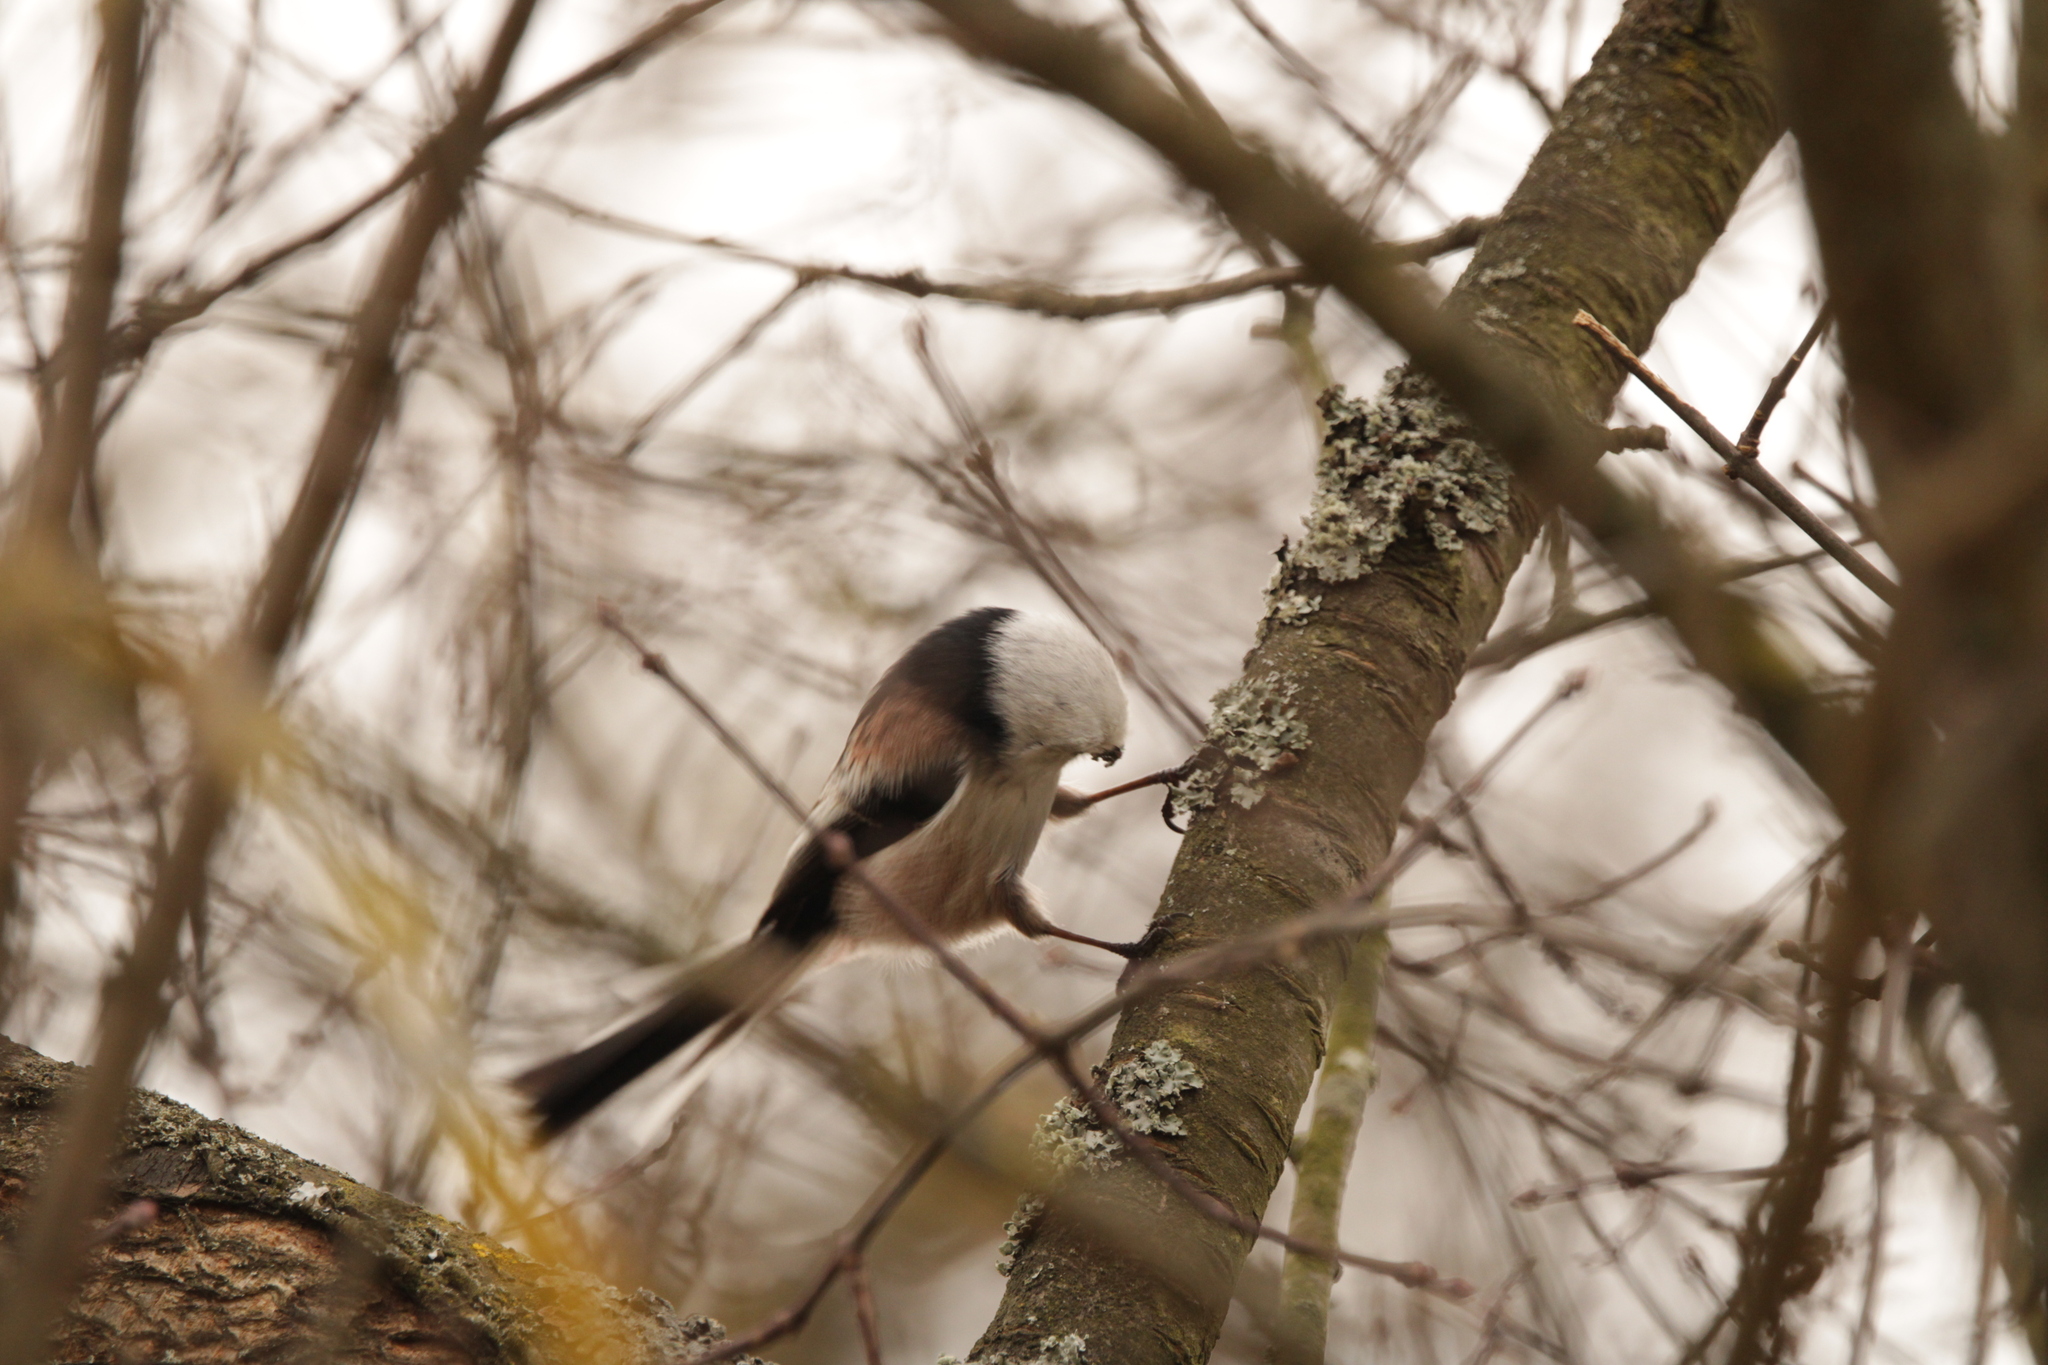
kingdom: Animalia
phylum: Chordata
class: Aves
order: Passeriformes
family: Aegithalidae
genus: Aegithalos
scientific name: Aegithalos caudatus
